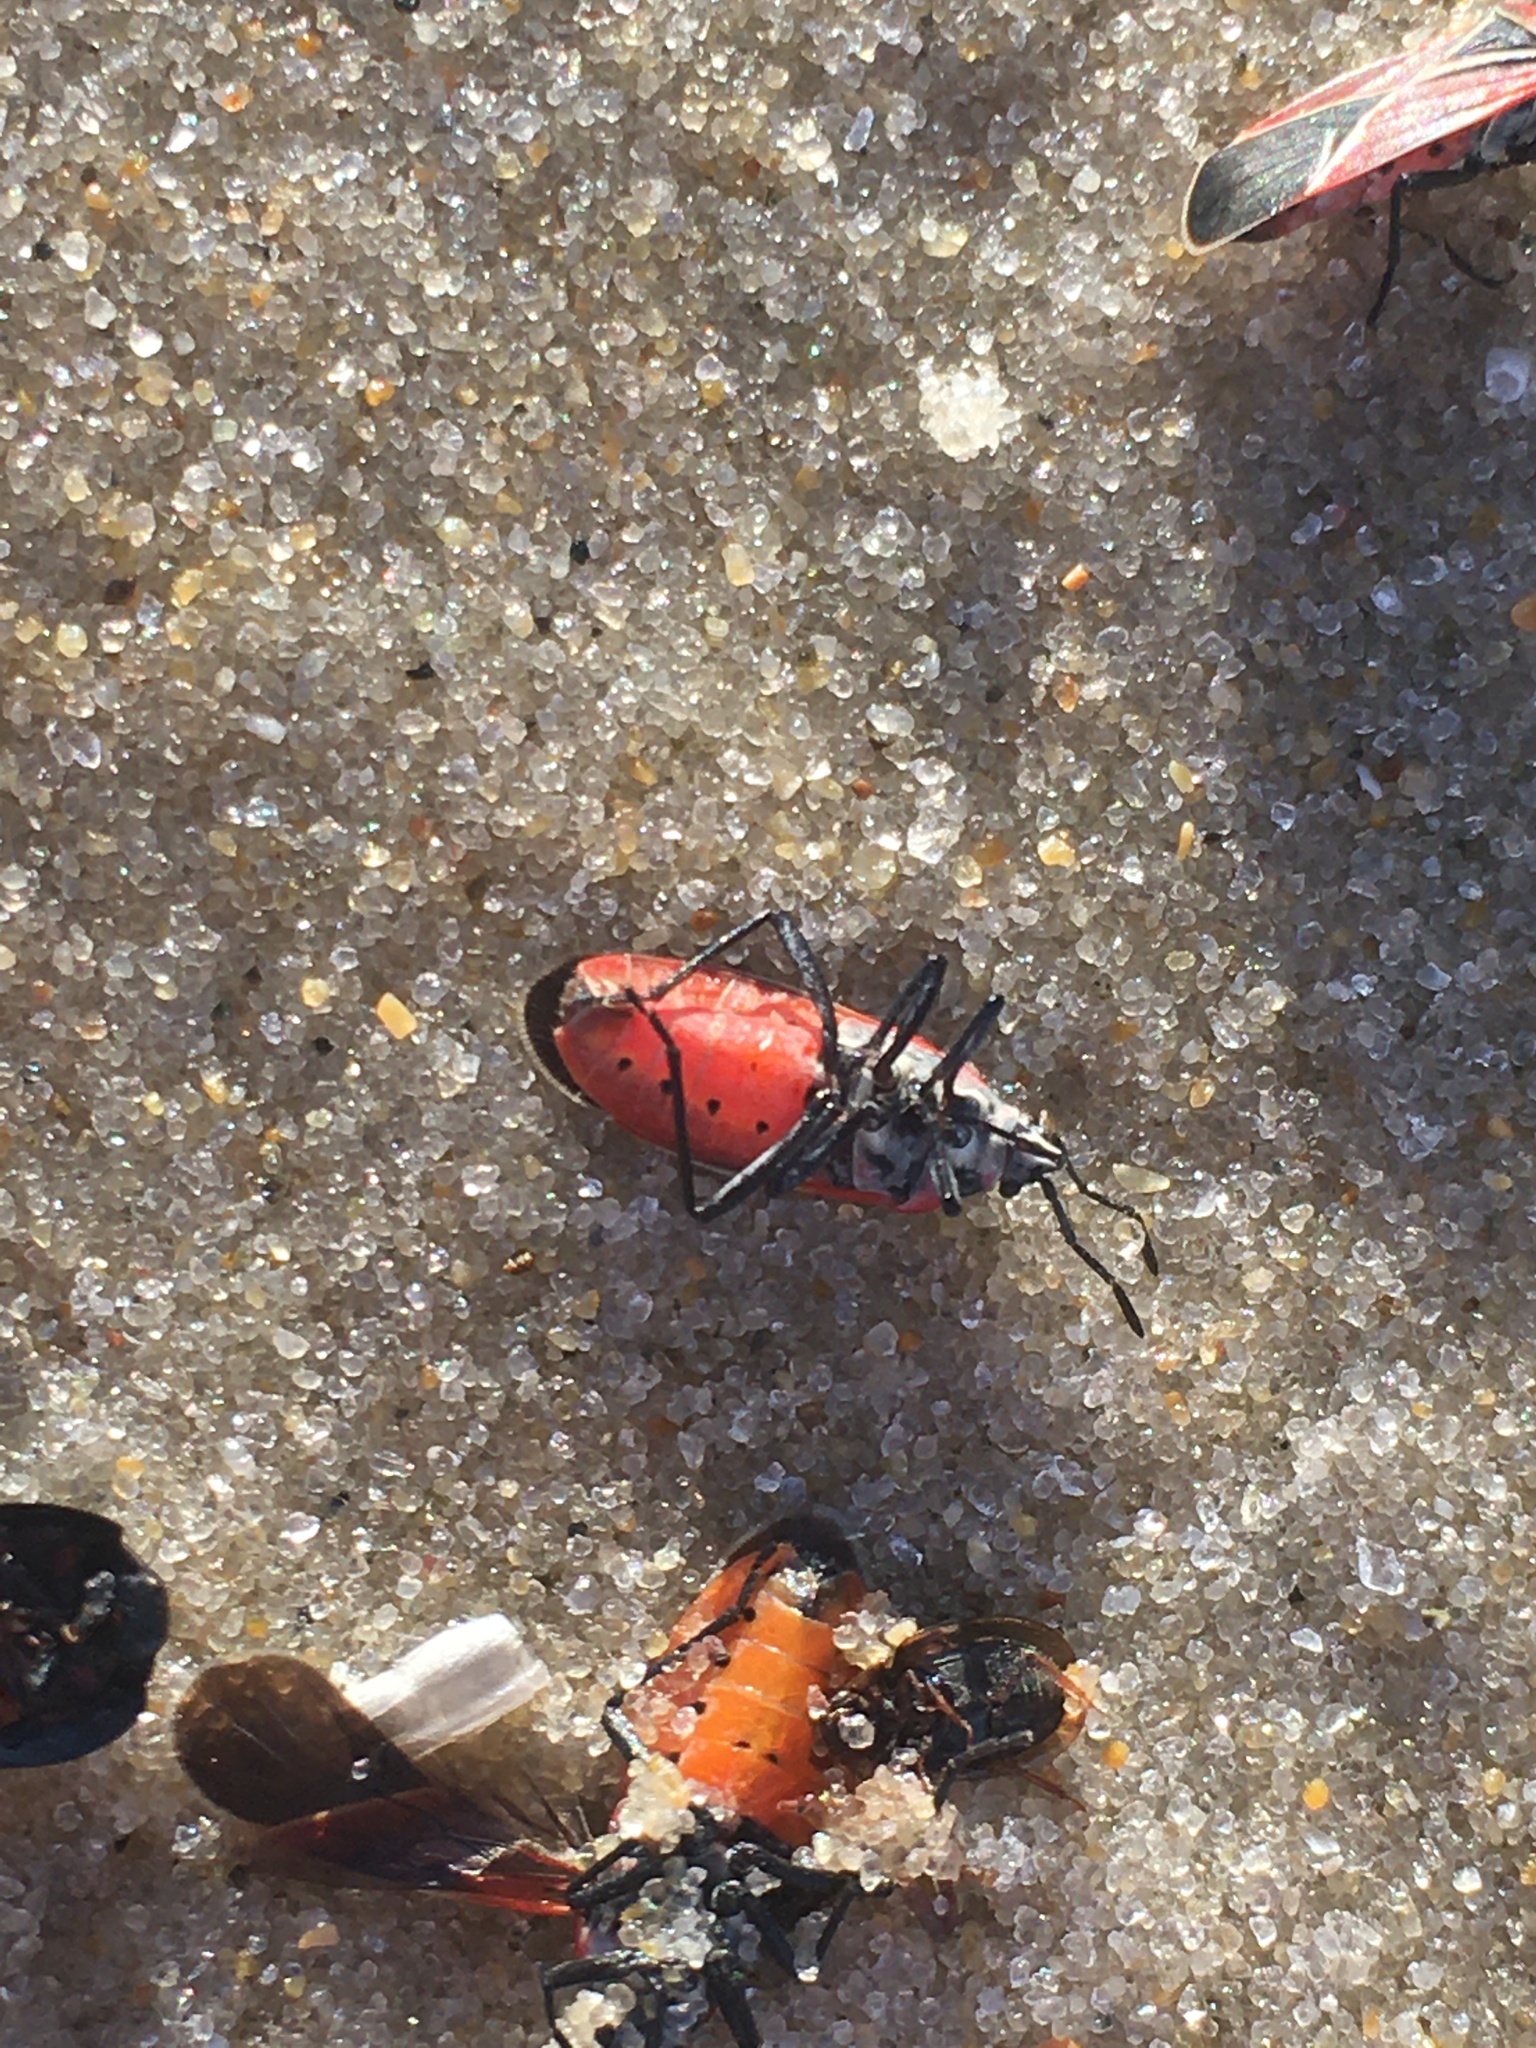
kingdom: Animalia
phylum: Arthropoda
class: Insecta
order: Hemiptera
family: Lygaeidae
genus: Neacoryphus
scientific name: Neacoryphus bicrucis
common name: Lygaeid bug
